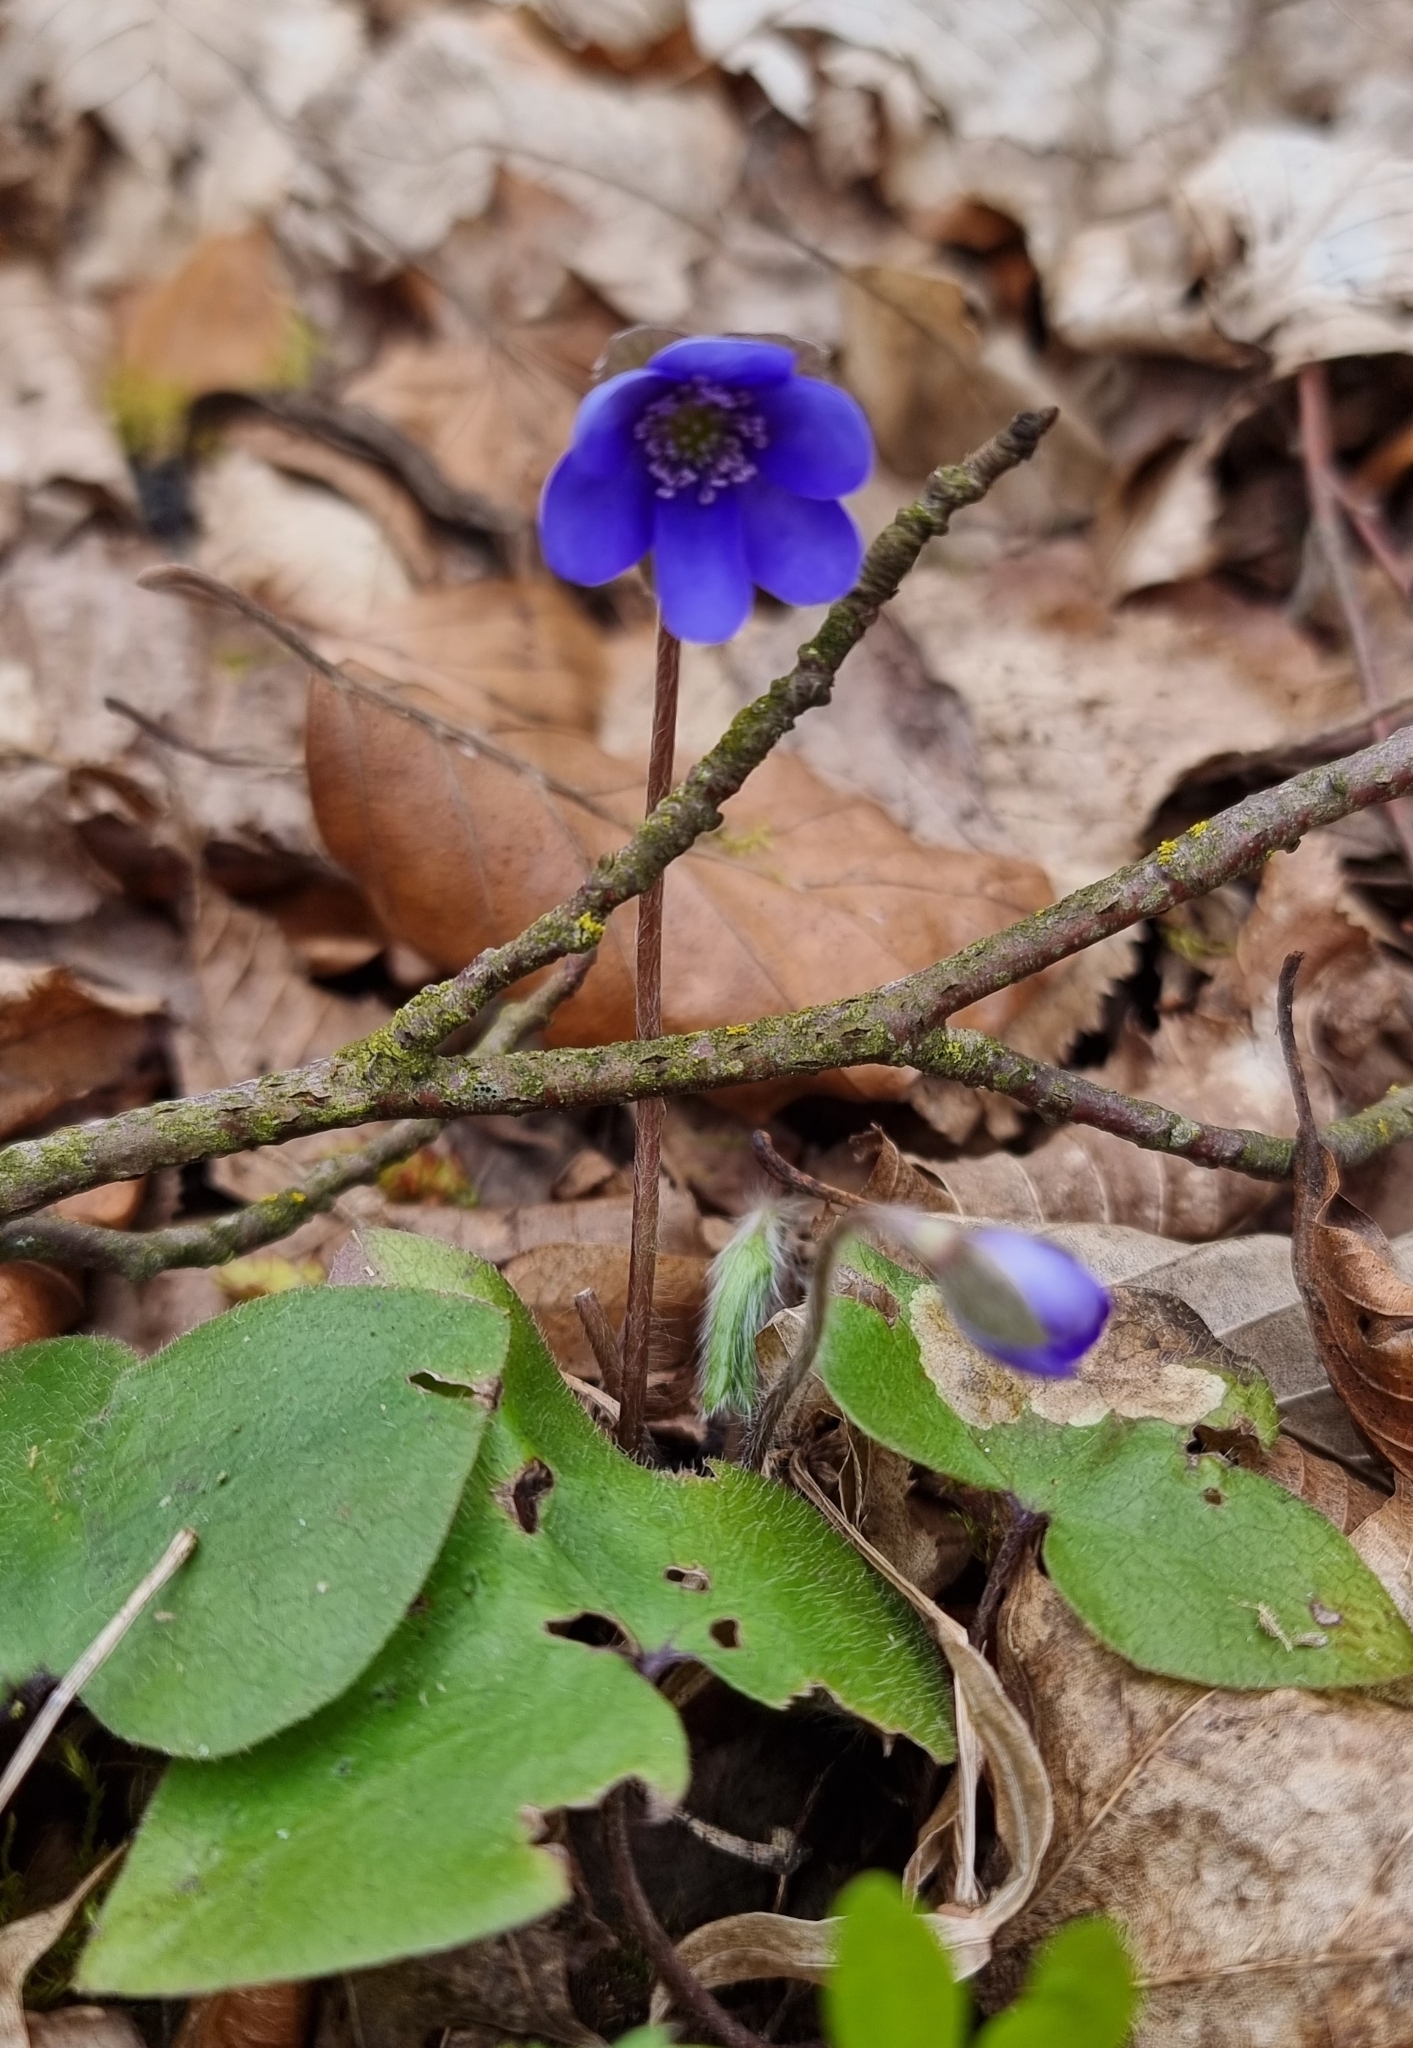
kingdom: Plantae
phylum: Tracheophyta
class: Magnoliopsida
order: Ranunculales
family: Ranunculaceae
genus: Hepatica
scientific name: Hepatica nobilis
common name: Liverleaf
